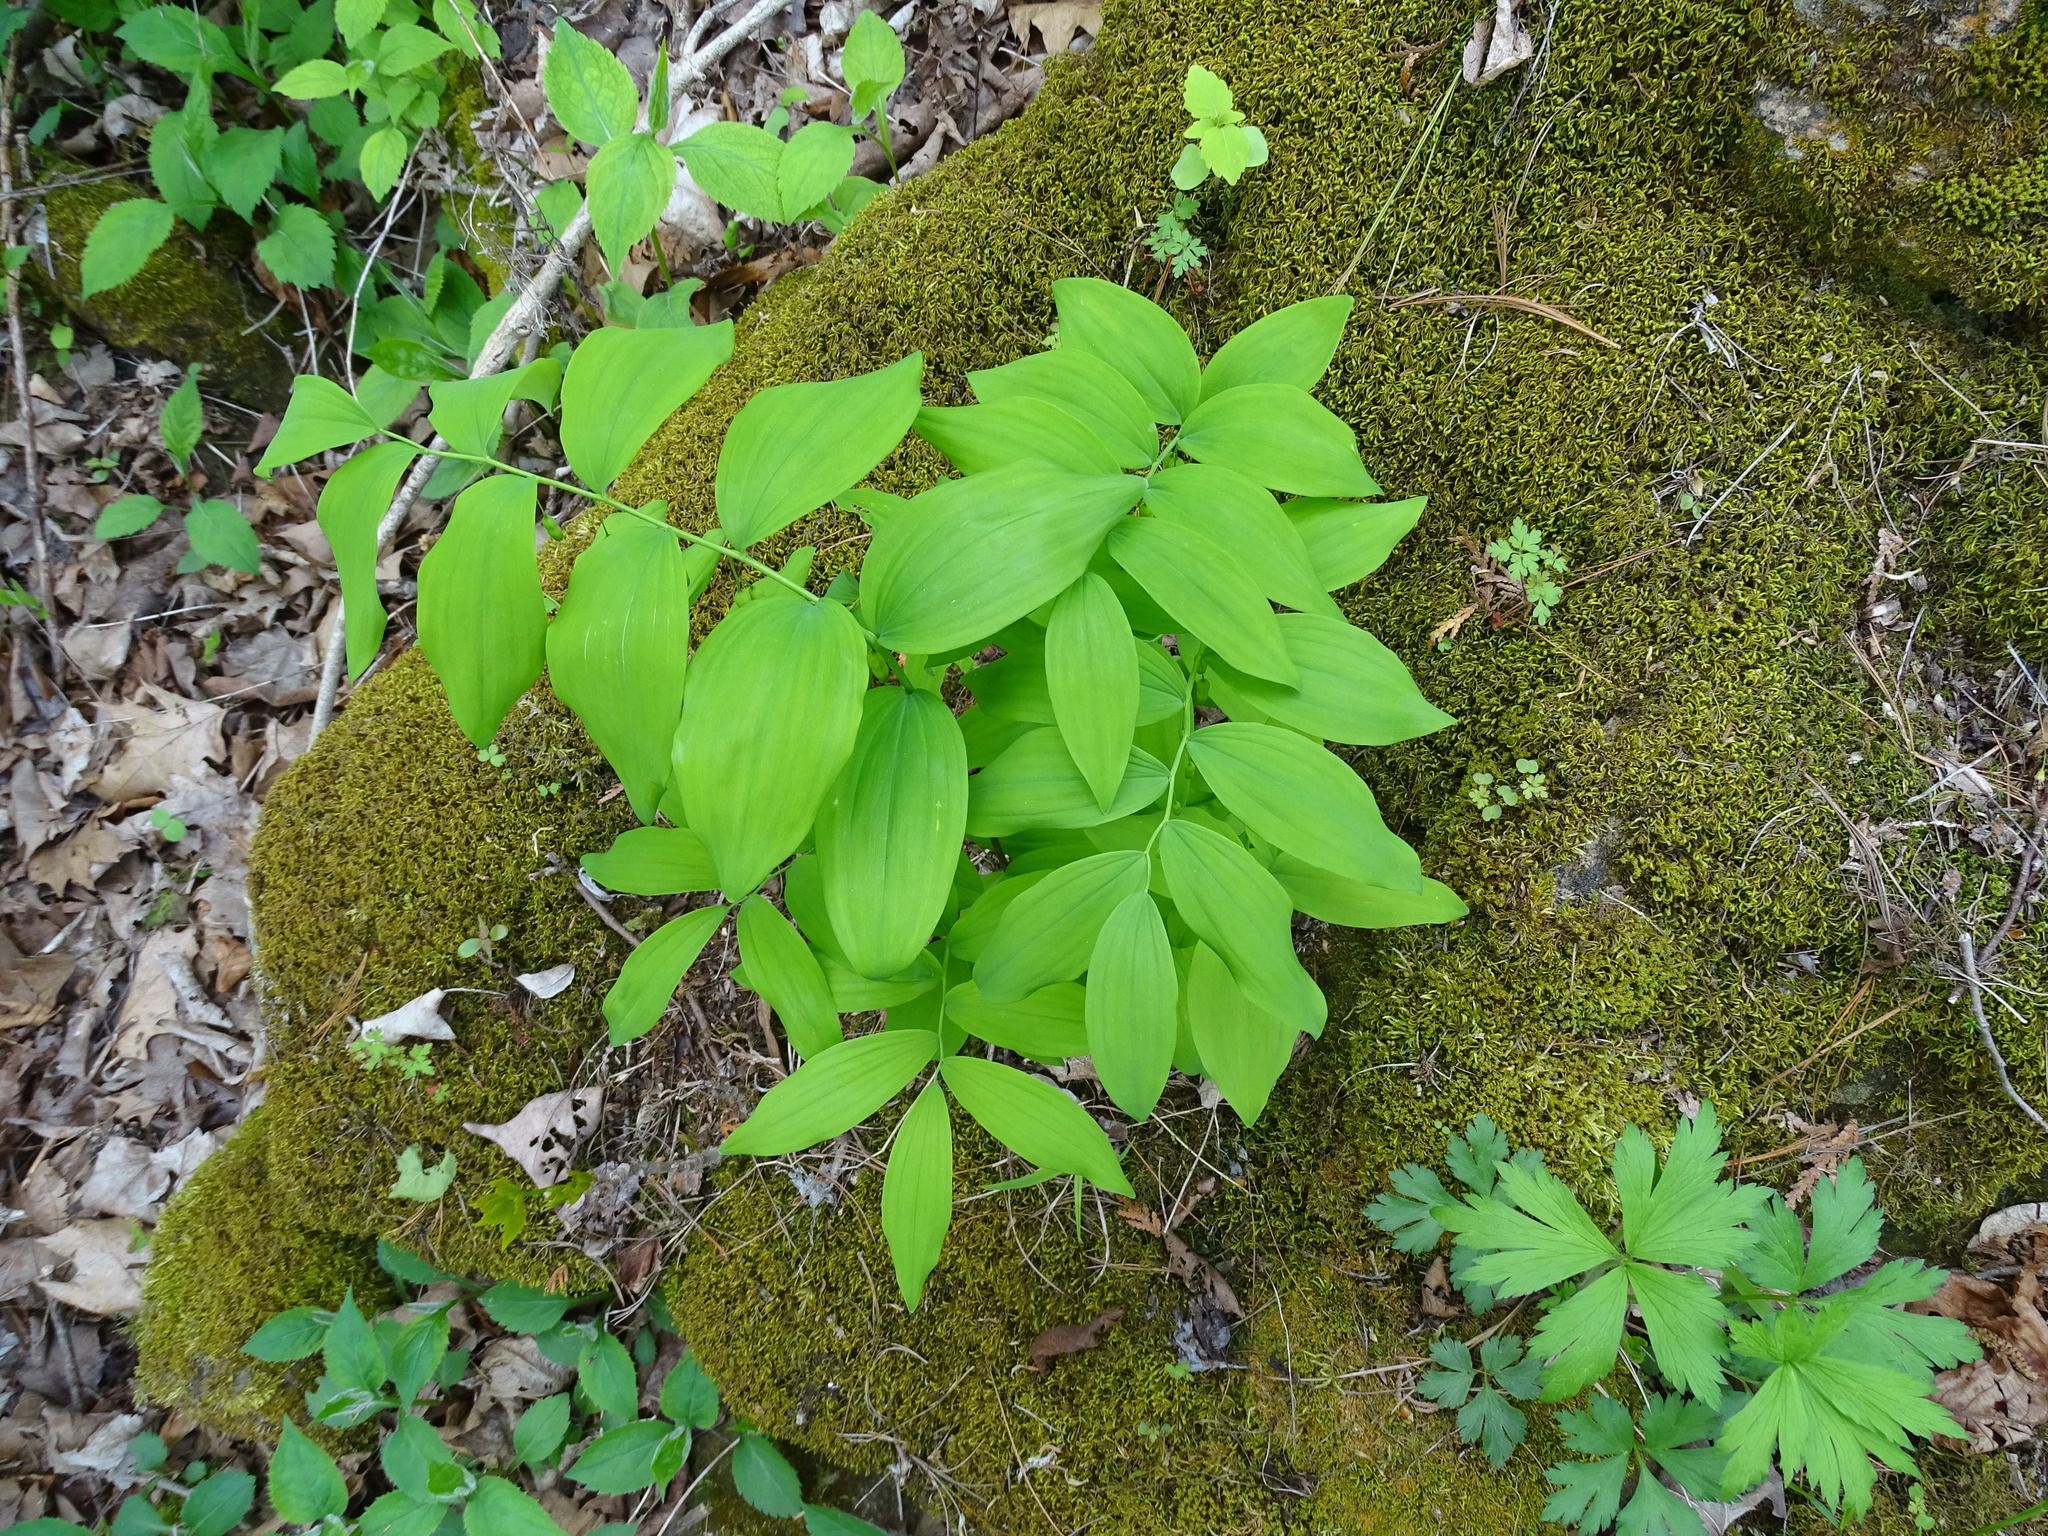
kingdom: Plantae
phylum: Tracheophyta
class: Liliopsida
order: Asparagales
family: Asparagaceae
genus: Polygonatum
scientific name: Polygonatum pubescens
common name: Downy solomon's seal
